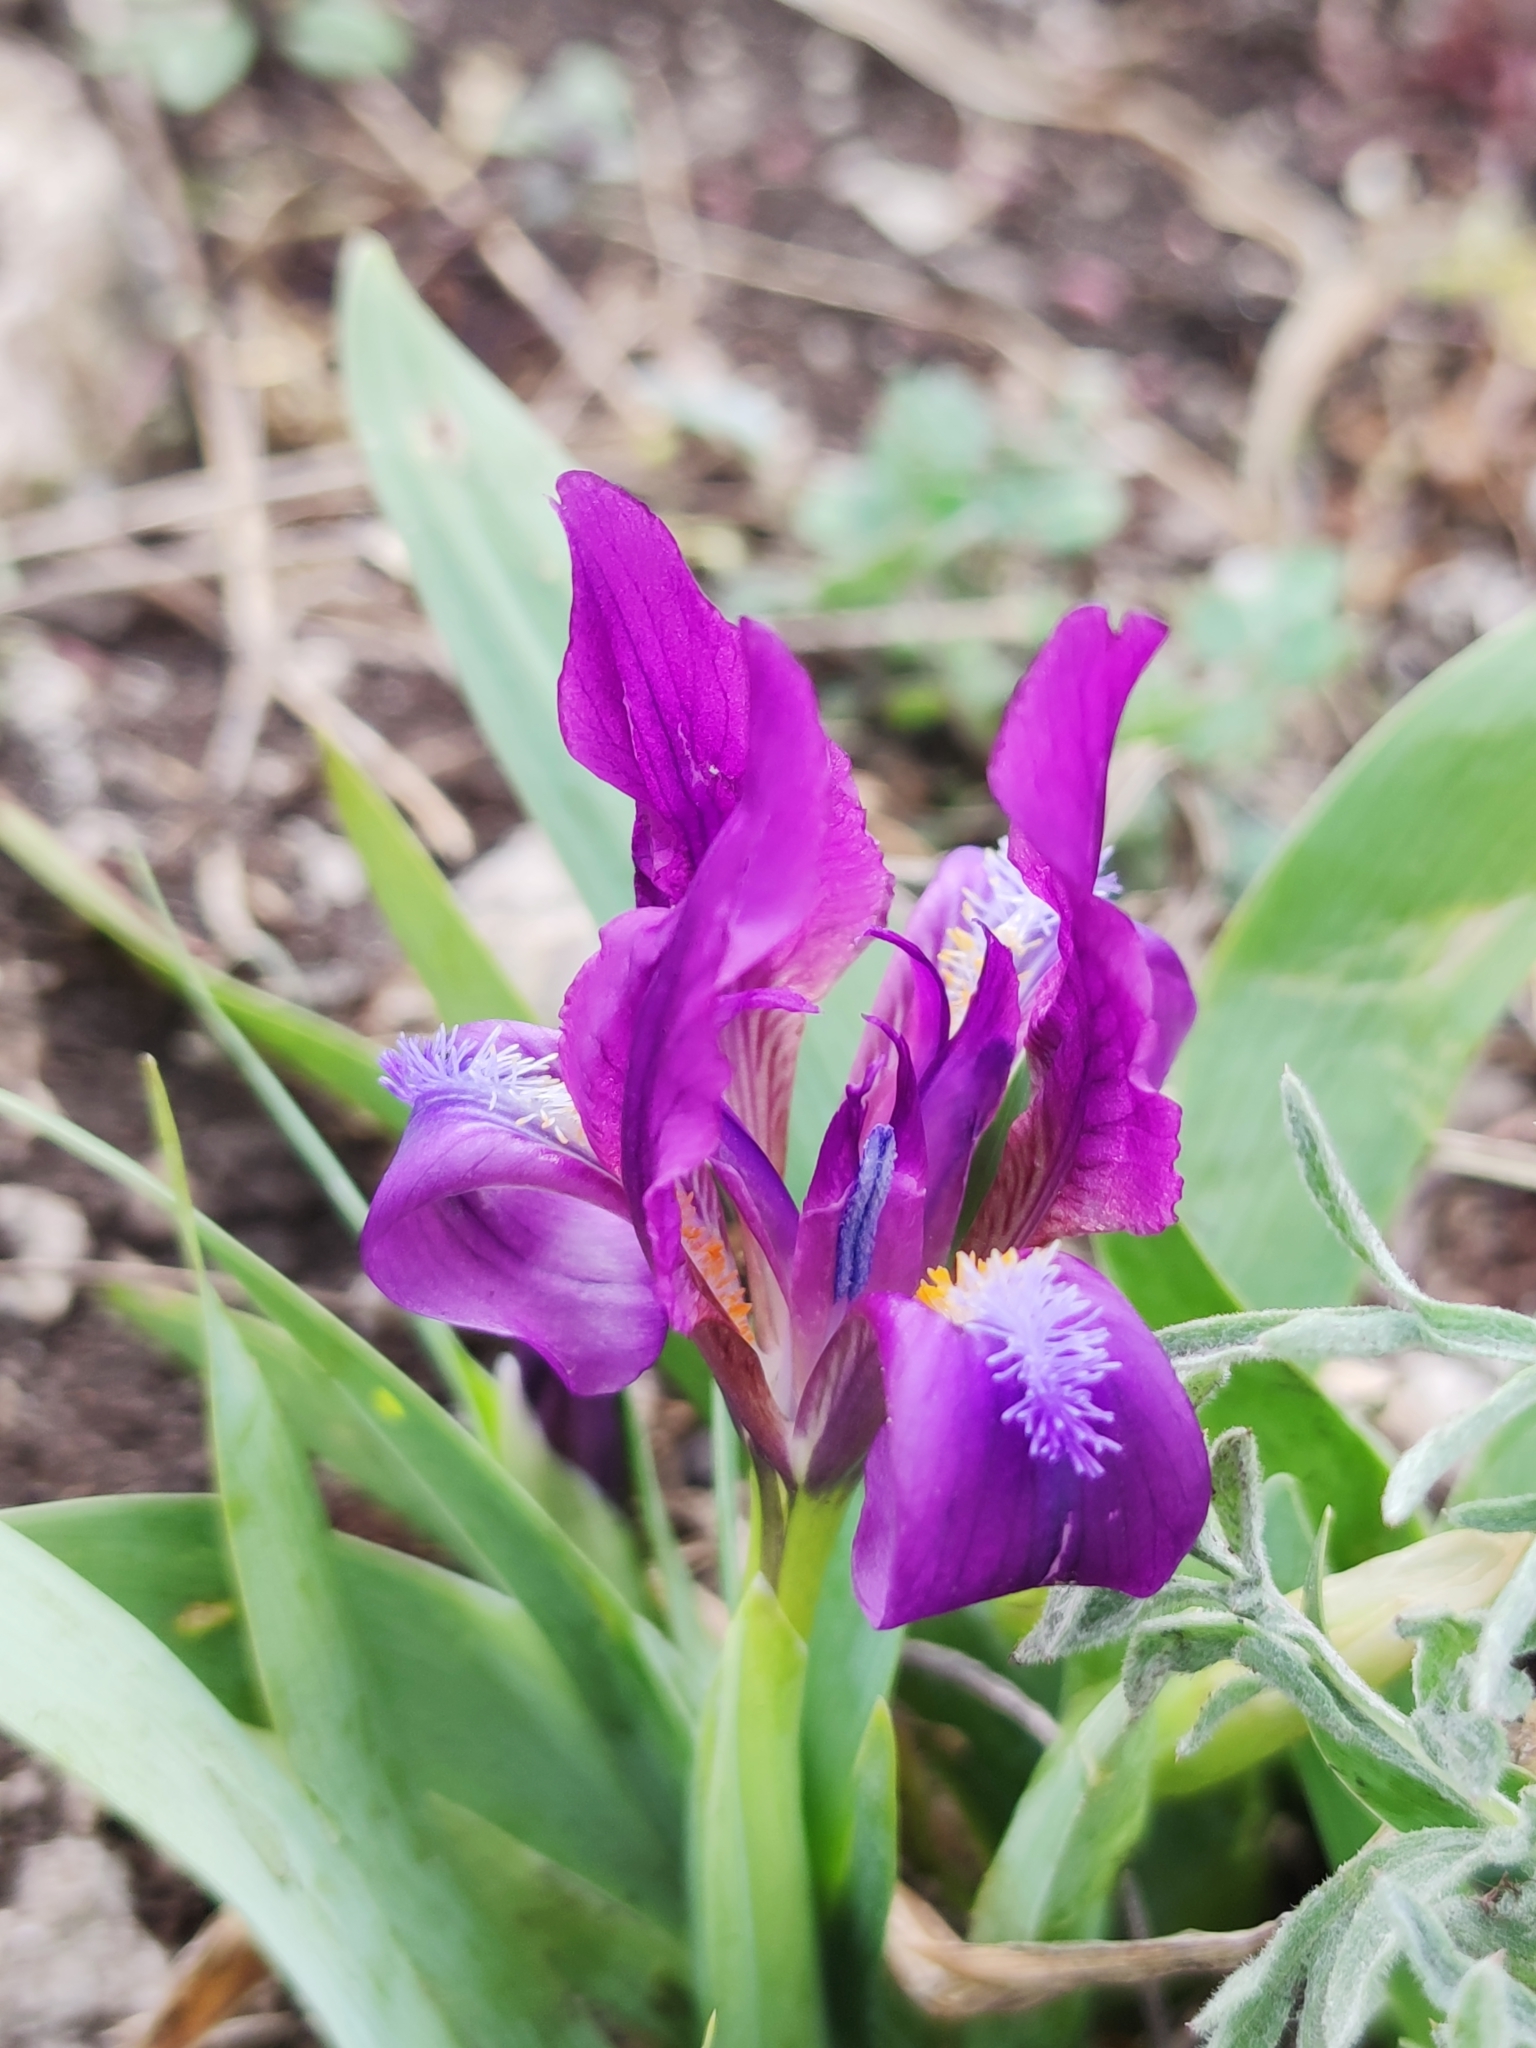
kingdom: Plantae
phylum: Tracheophyta
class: Liliopsida
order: Asparagales
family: Iridaceae
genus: Iris
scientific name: Iris pumila
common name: Dwarf iris
